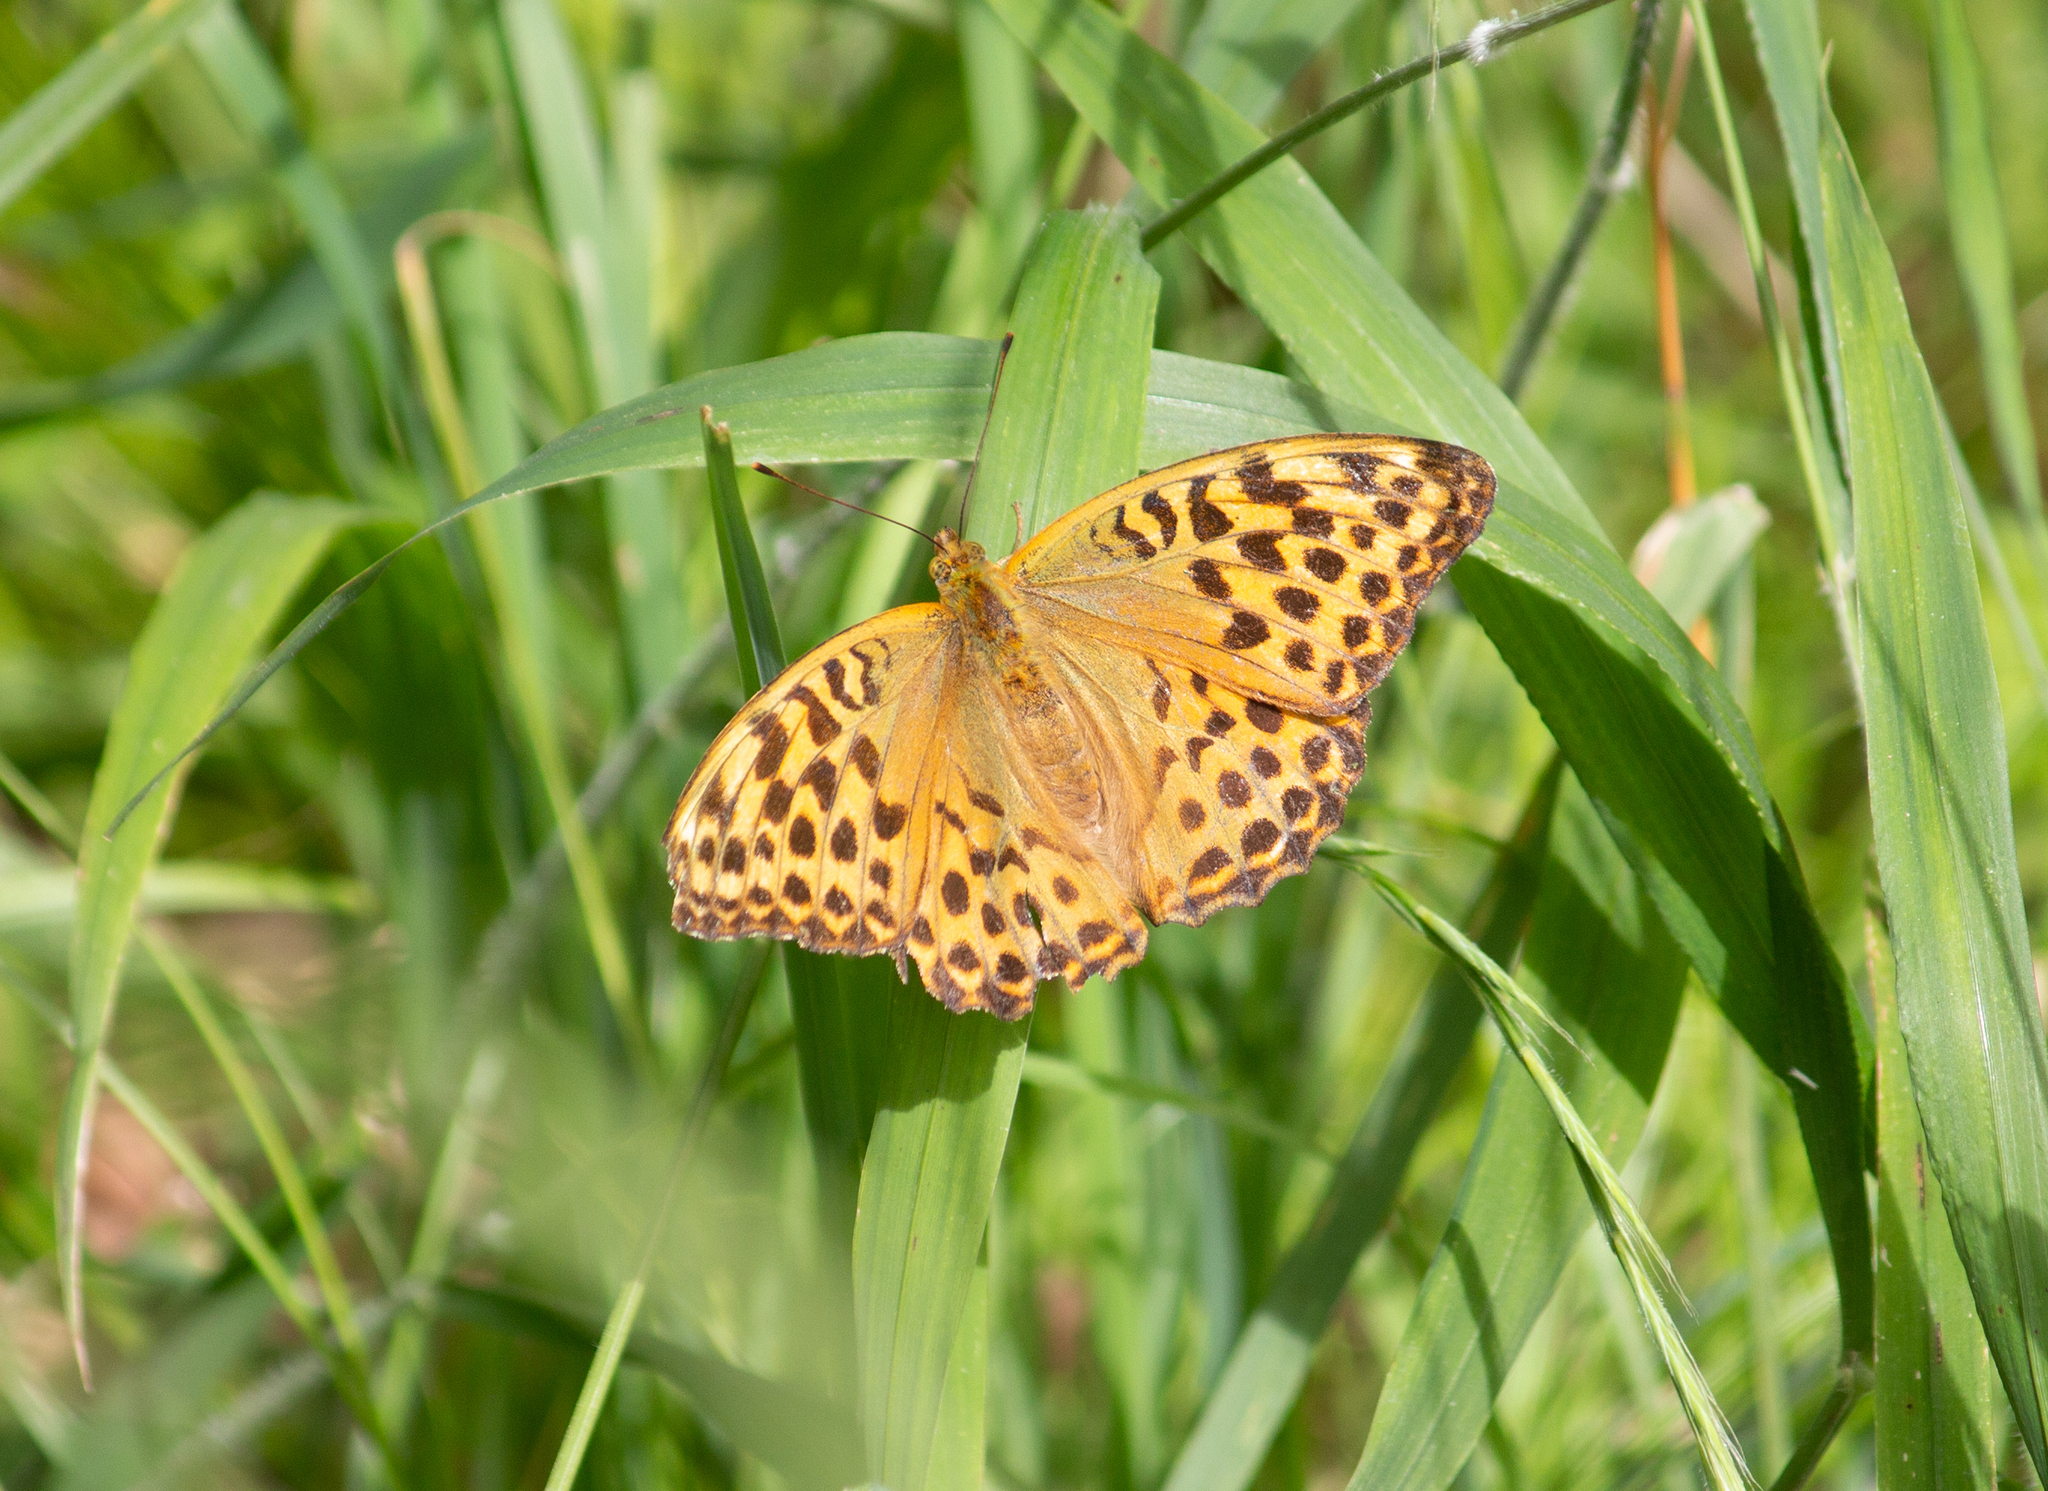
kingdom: Animalia
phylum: Arthropoda
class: Insecta
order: Lepidoptera
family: Nymphalidae
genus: Argynnis
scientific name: Argynnis paphia
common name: Silver-washed fritillary
